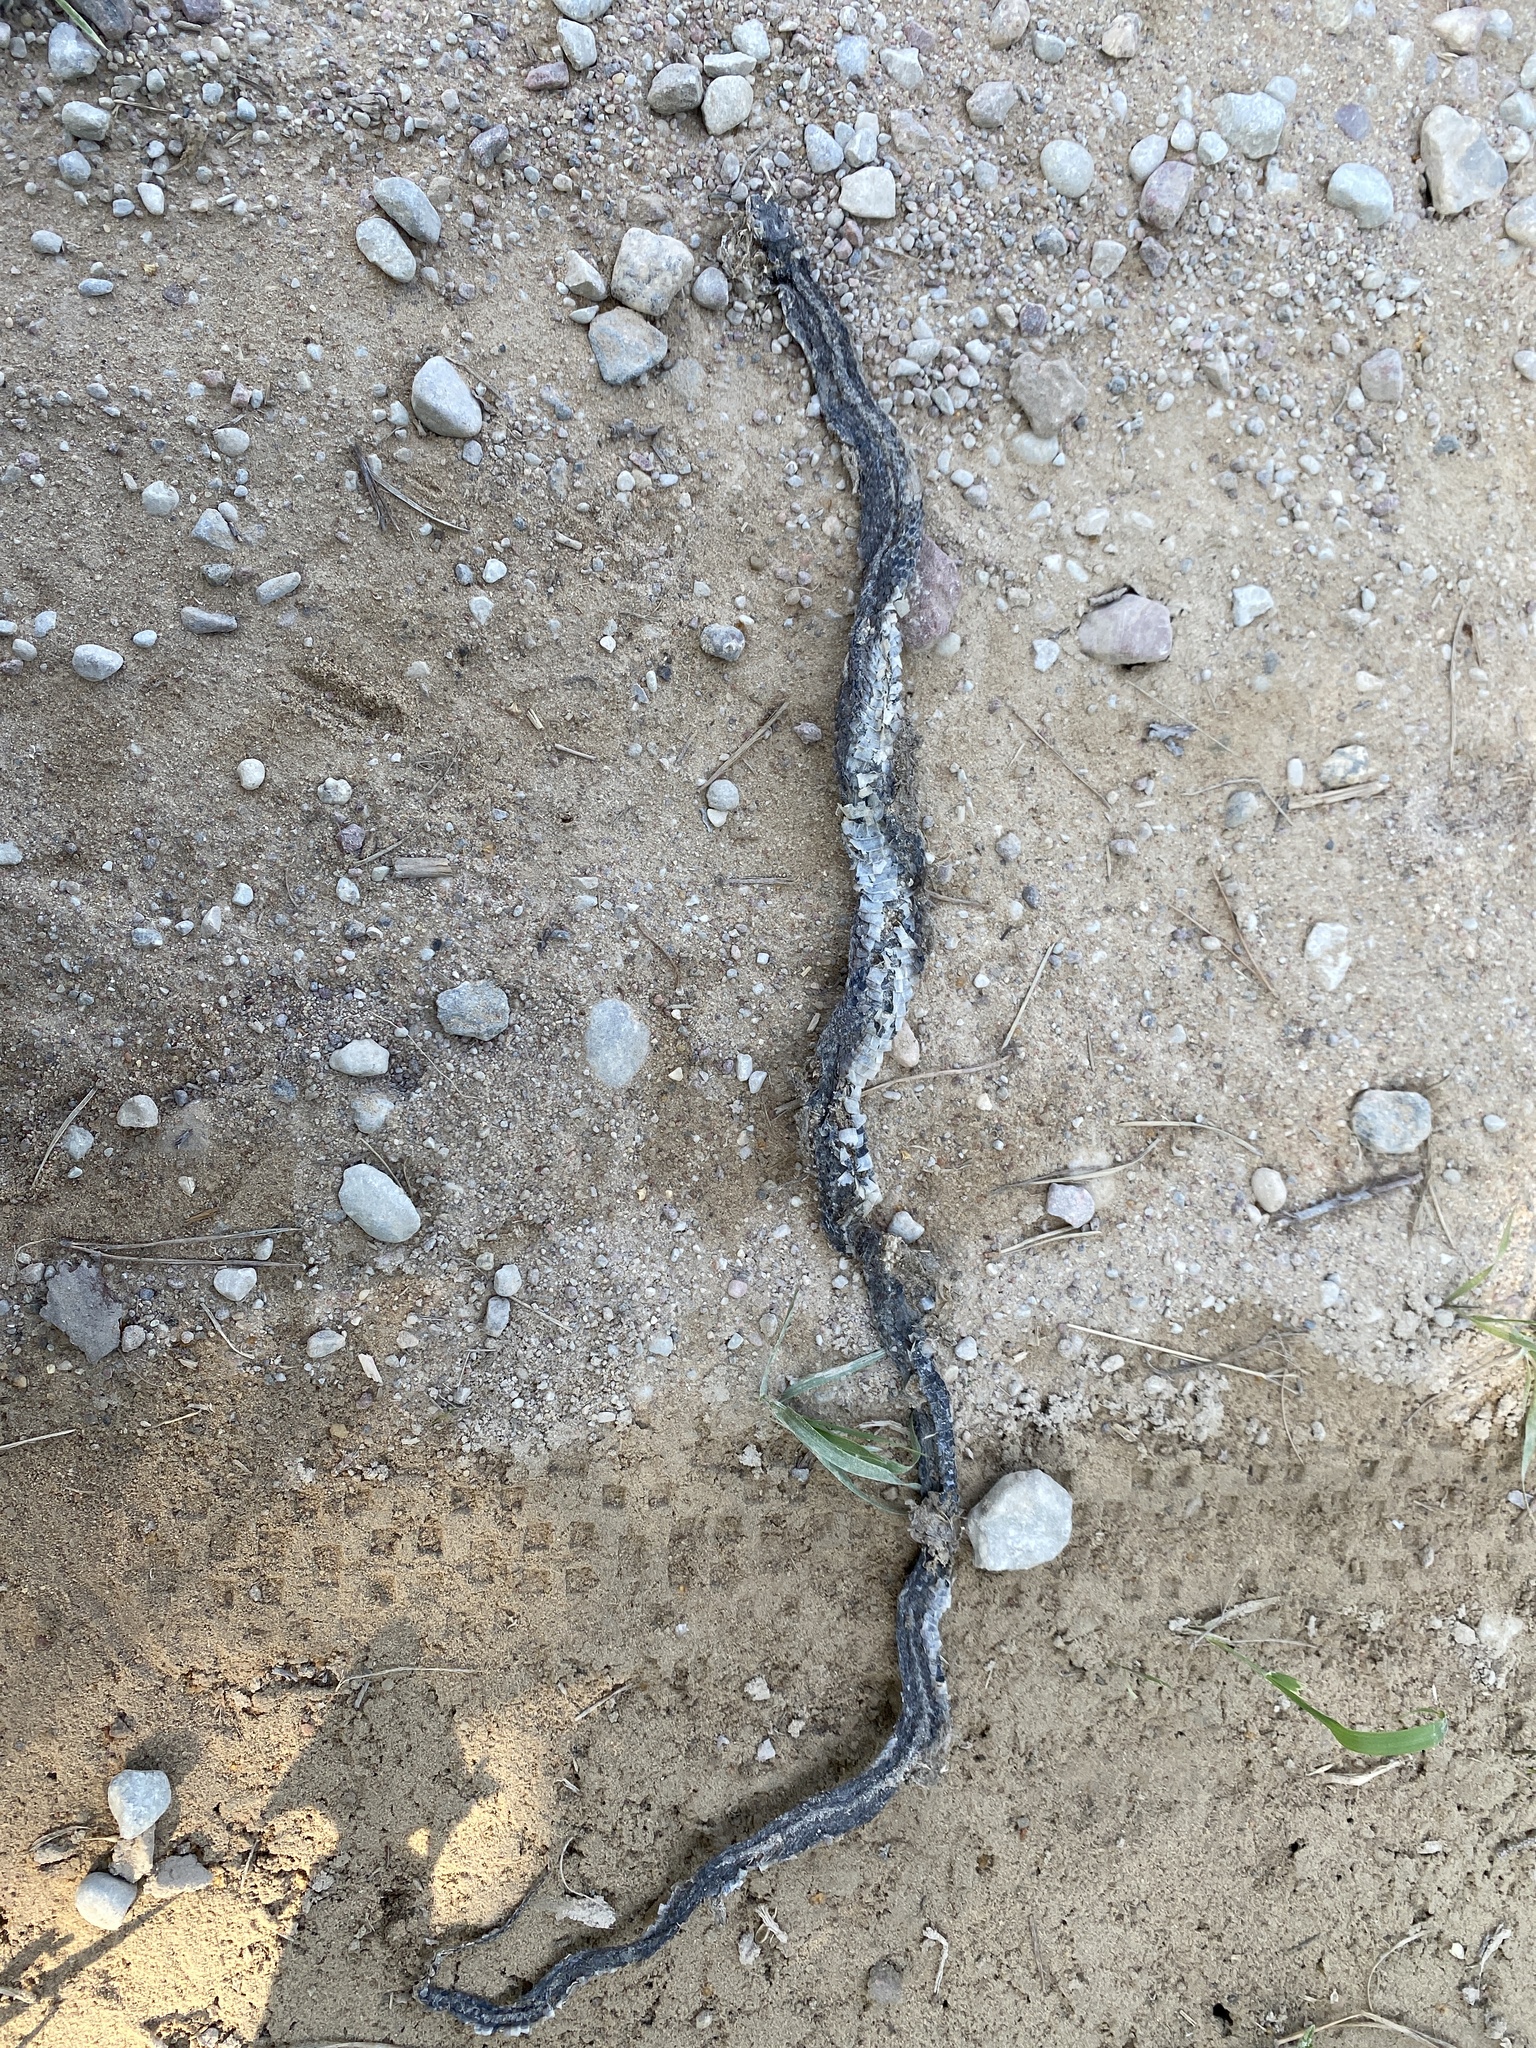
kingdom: Animalia
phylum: Chordata
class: Squamata
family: Colubridae
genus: Natrix
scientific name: Natrix natrix
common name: Grass snake
